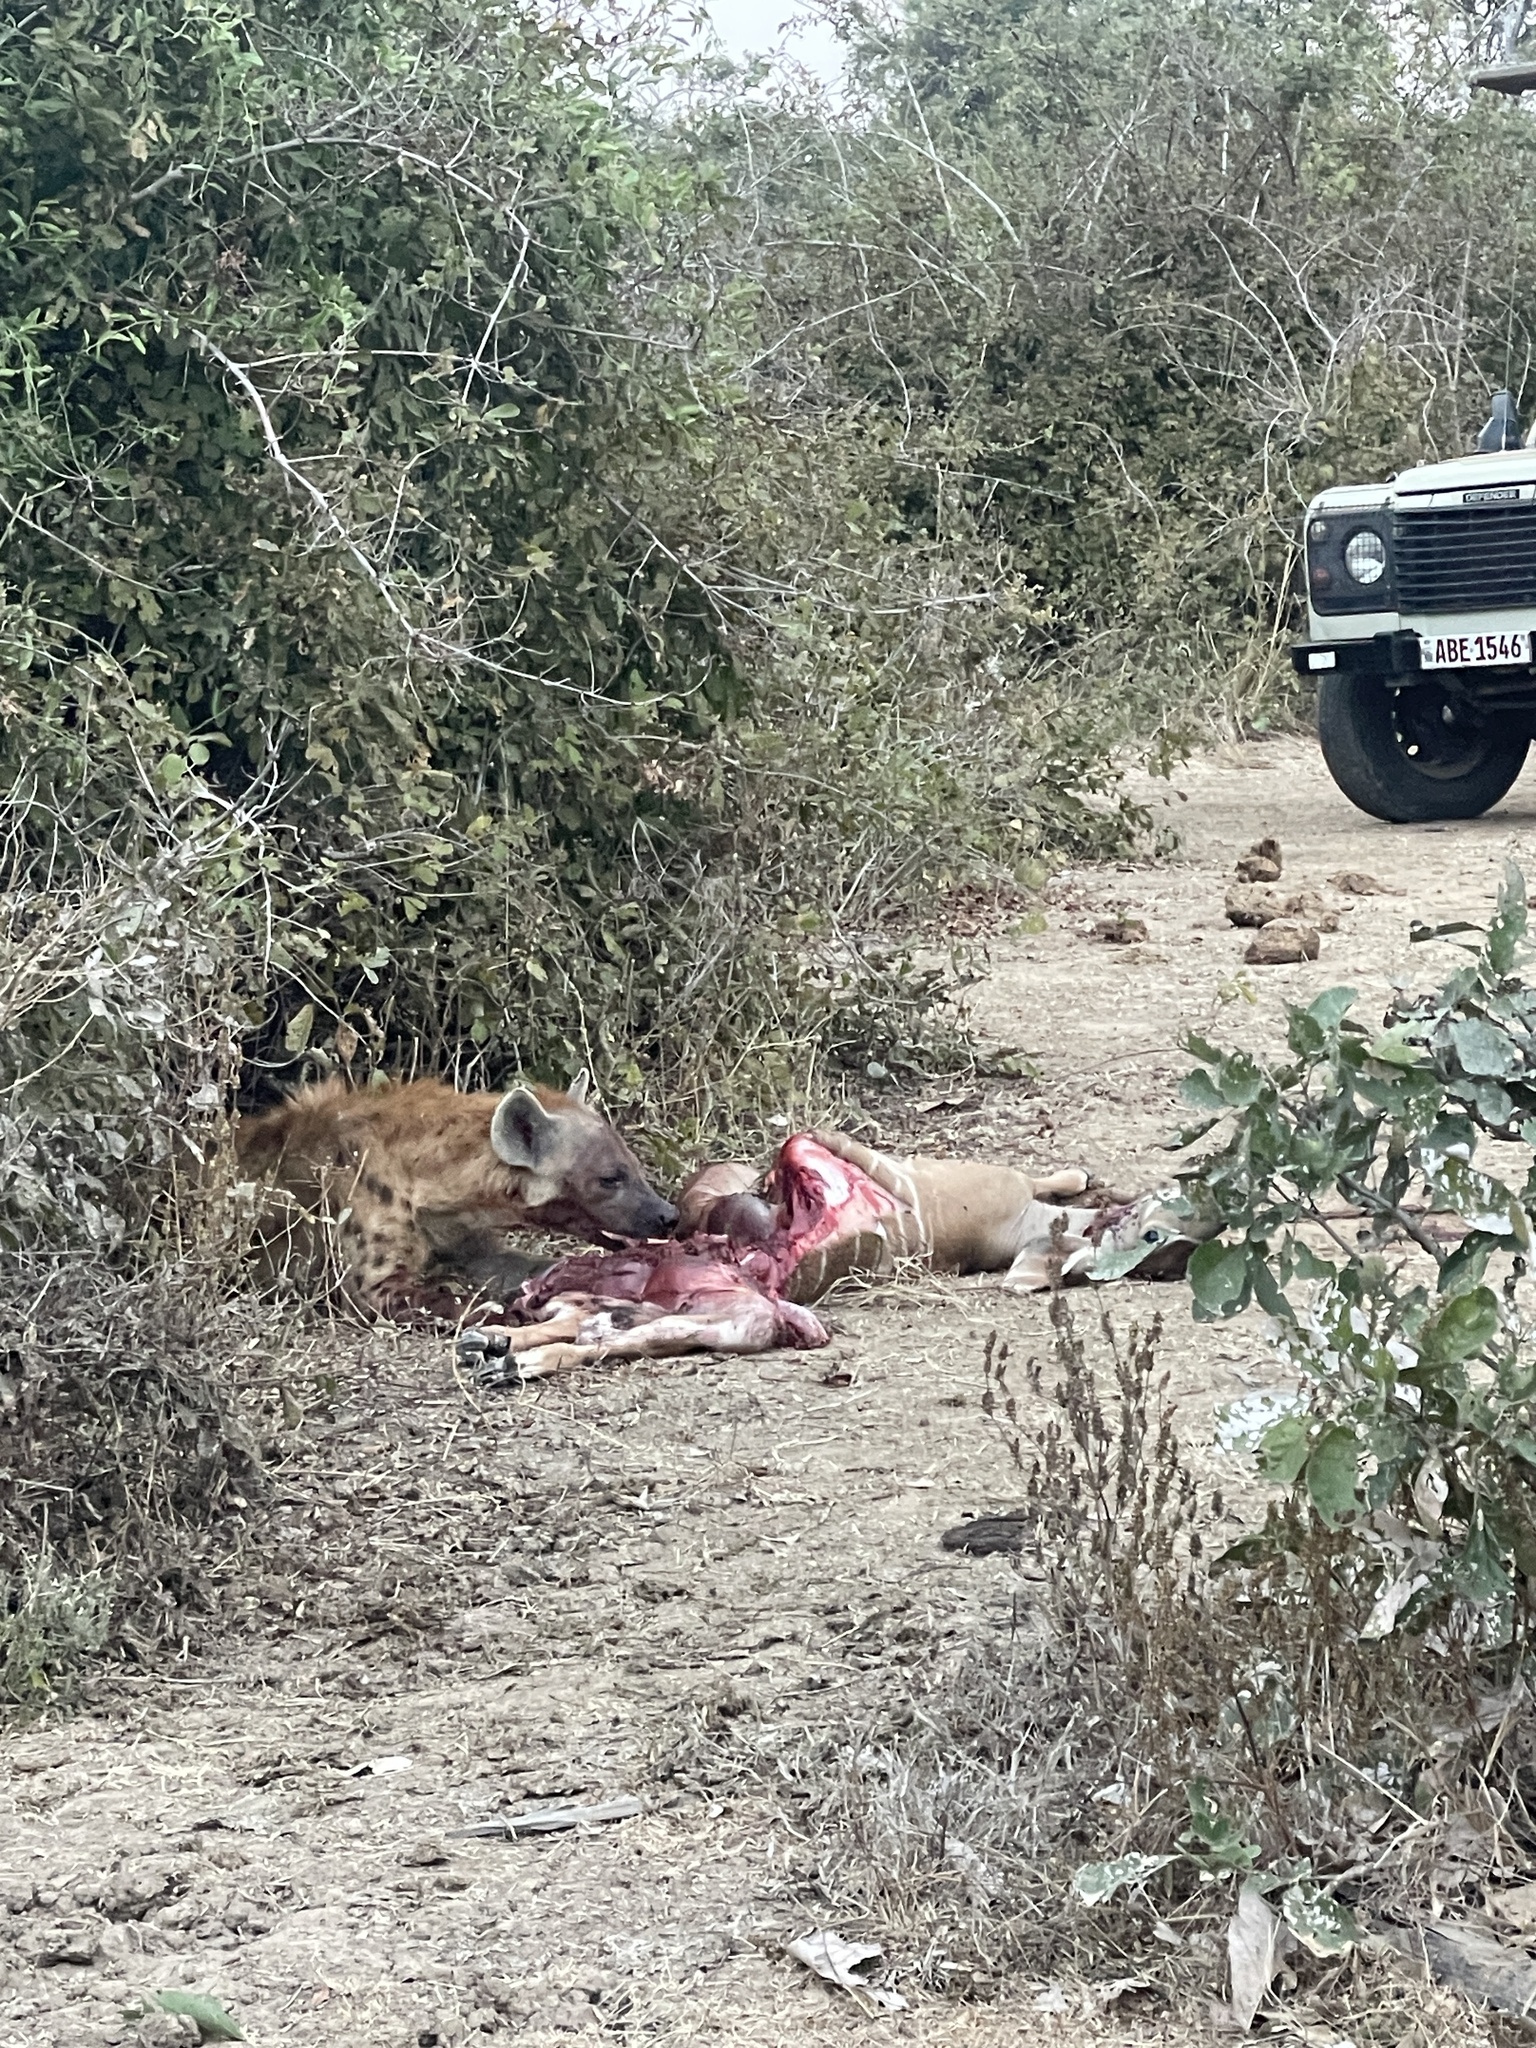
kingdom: Animalia
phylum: Chordata
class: Mammalia
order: Carnivora
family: Hyaenidae
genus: Crocuta
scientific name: Crocuta crocuta
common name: Spotted hyaena
